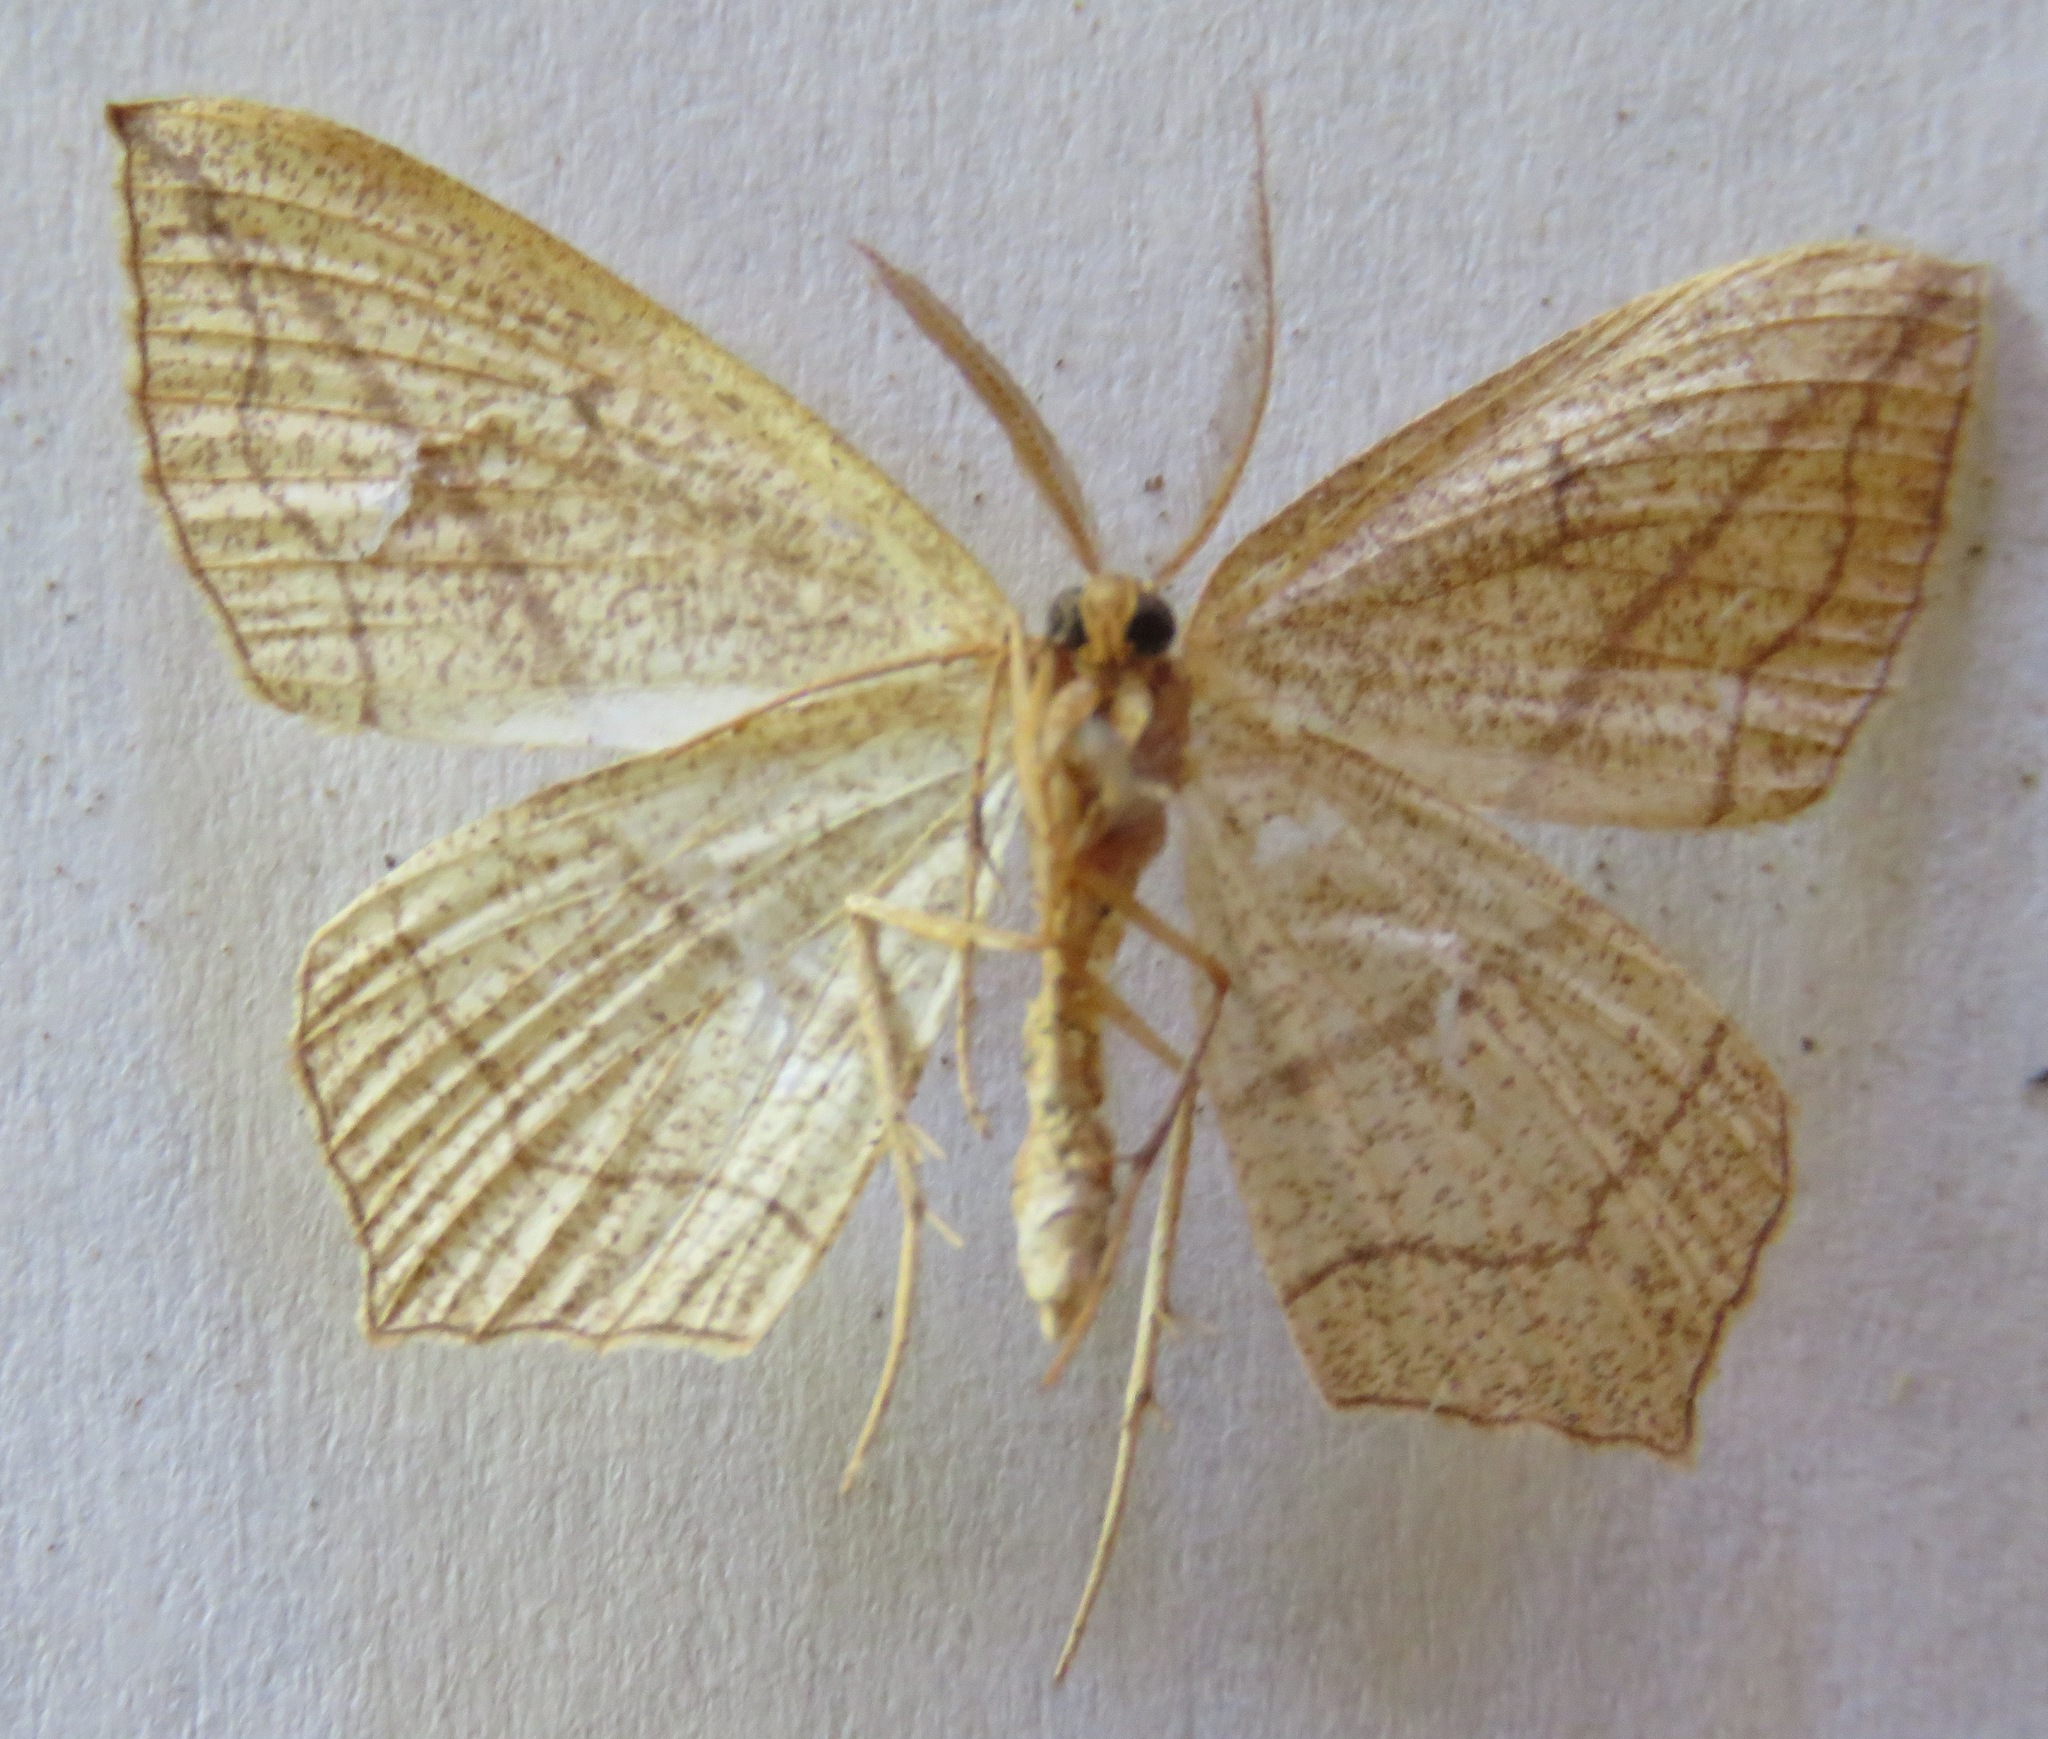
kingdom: Animalia
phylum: Arthropoda
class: Insecta
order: Lepidoptera
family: Geometridae
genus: Timandra
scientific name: Timandra comae
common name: Blood-vein
